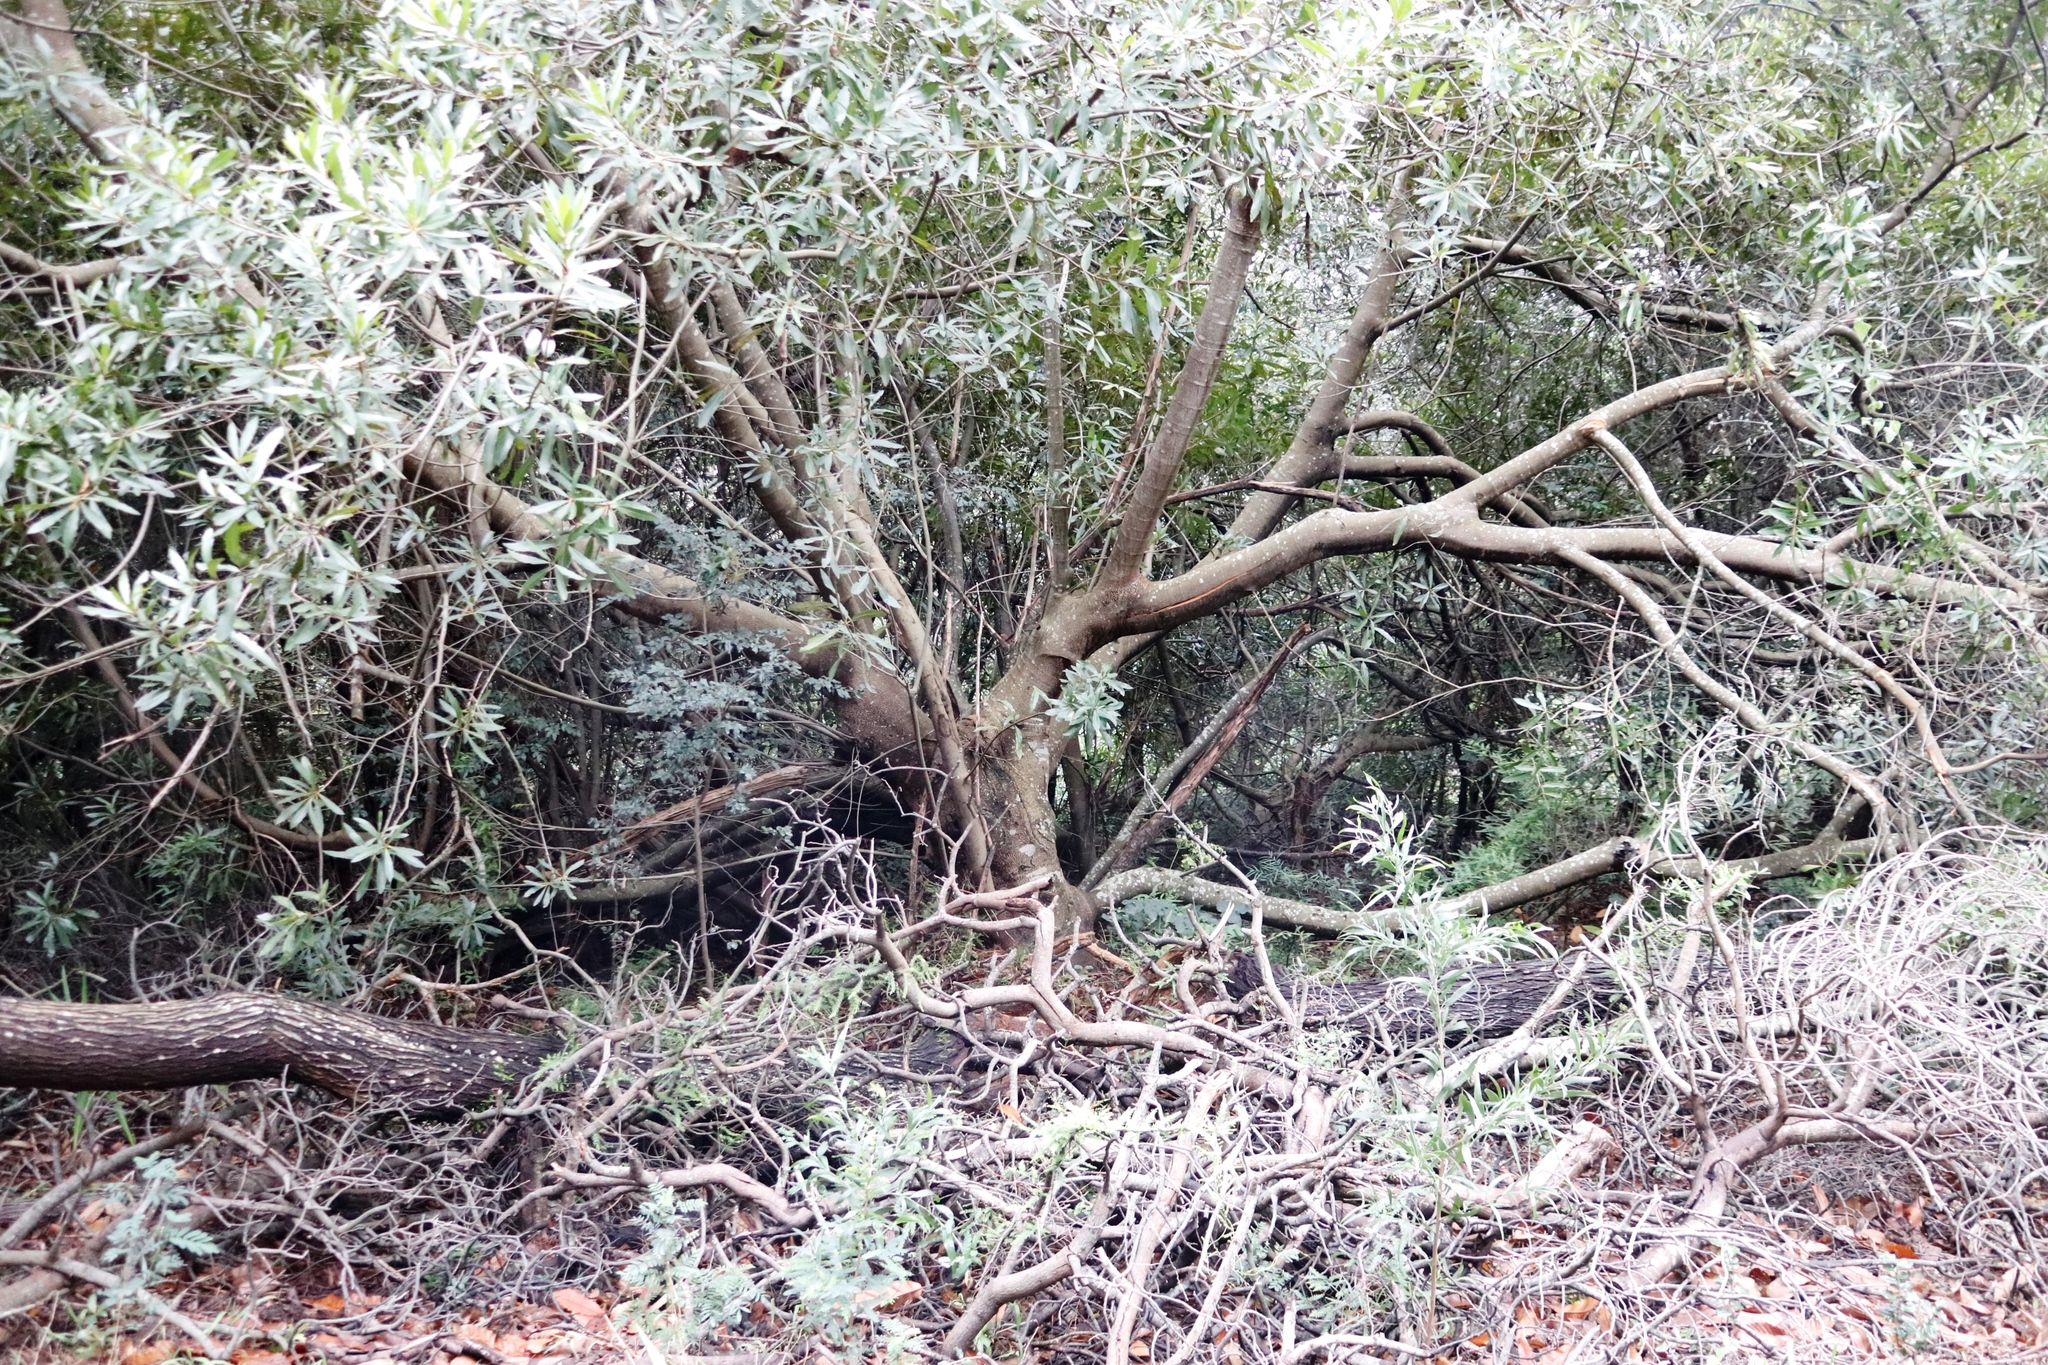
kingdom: Plantae
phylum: Tracheophyta
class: Magnoliopsida
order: Proteales
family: Proteaceae
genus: Brabejum
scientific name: Brabejum stellatifolium
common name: Wild almond
